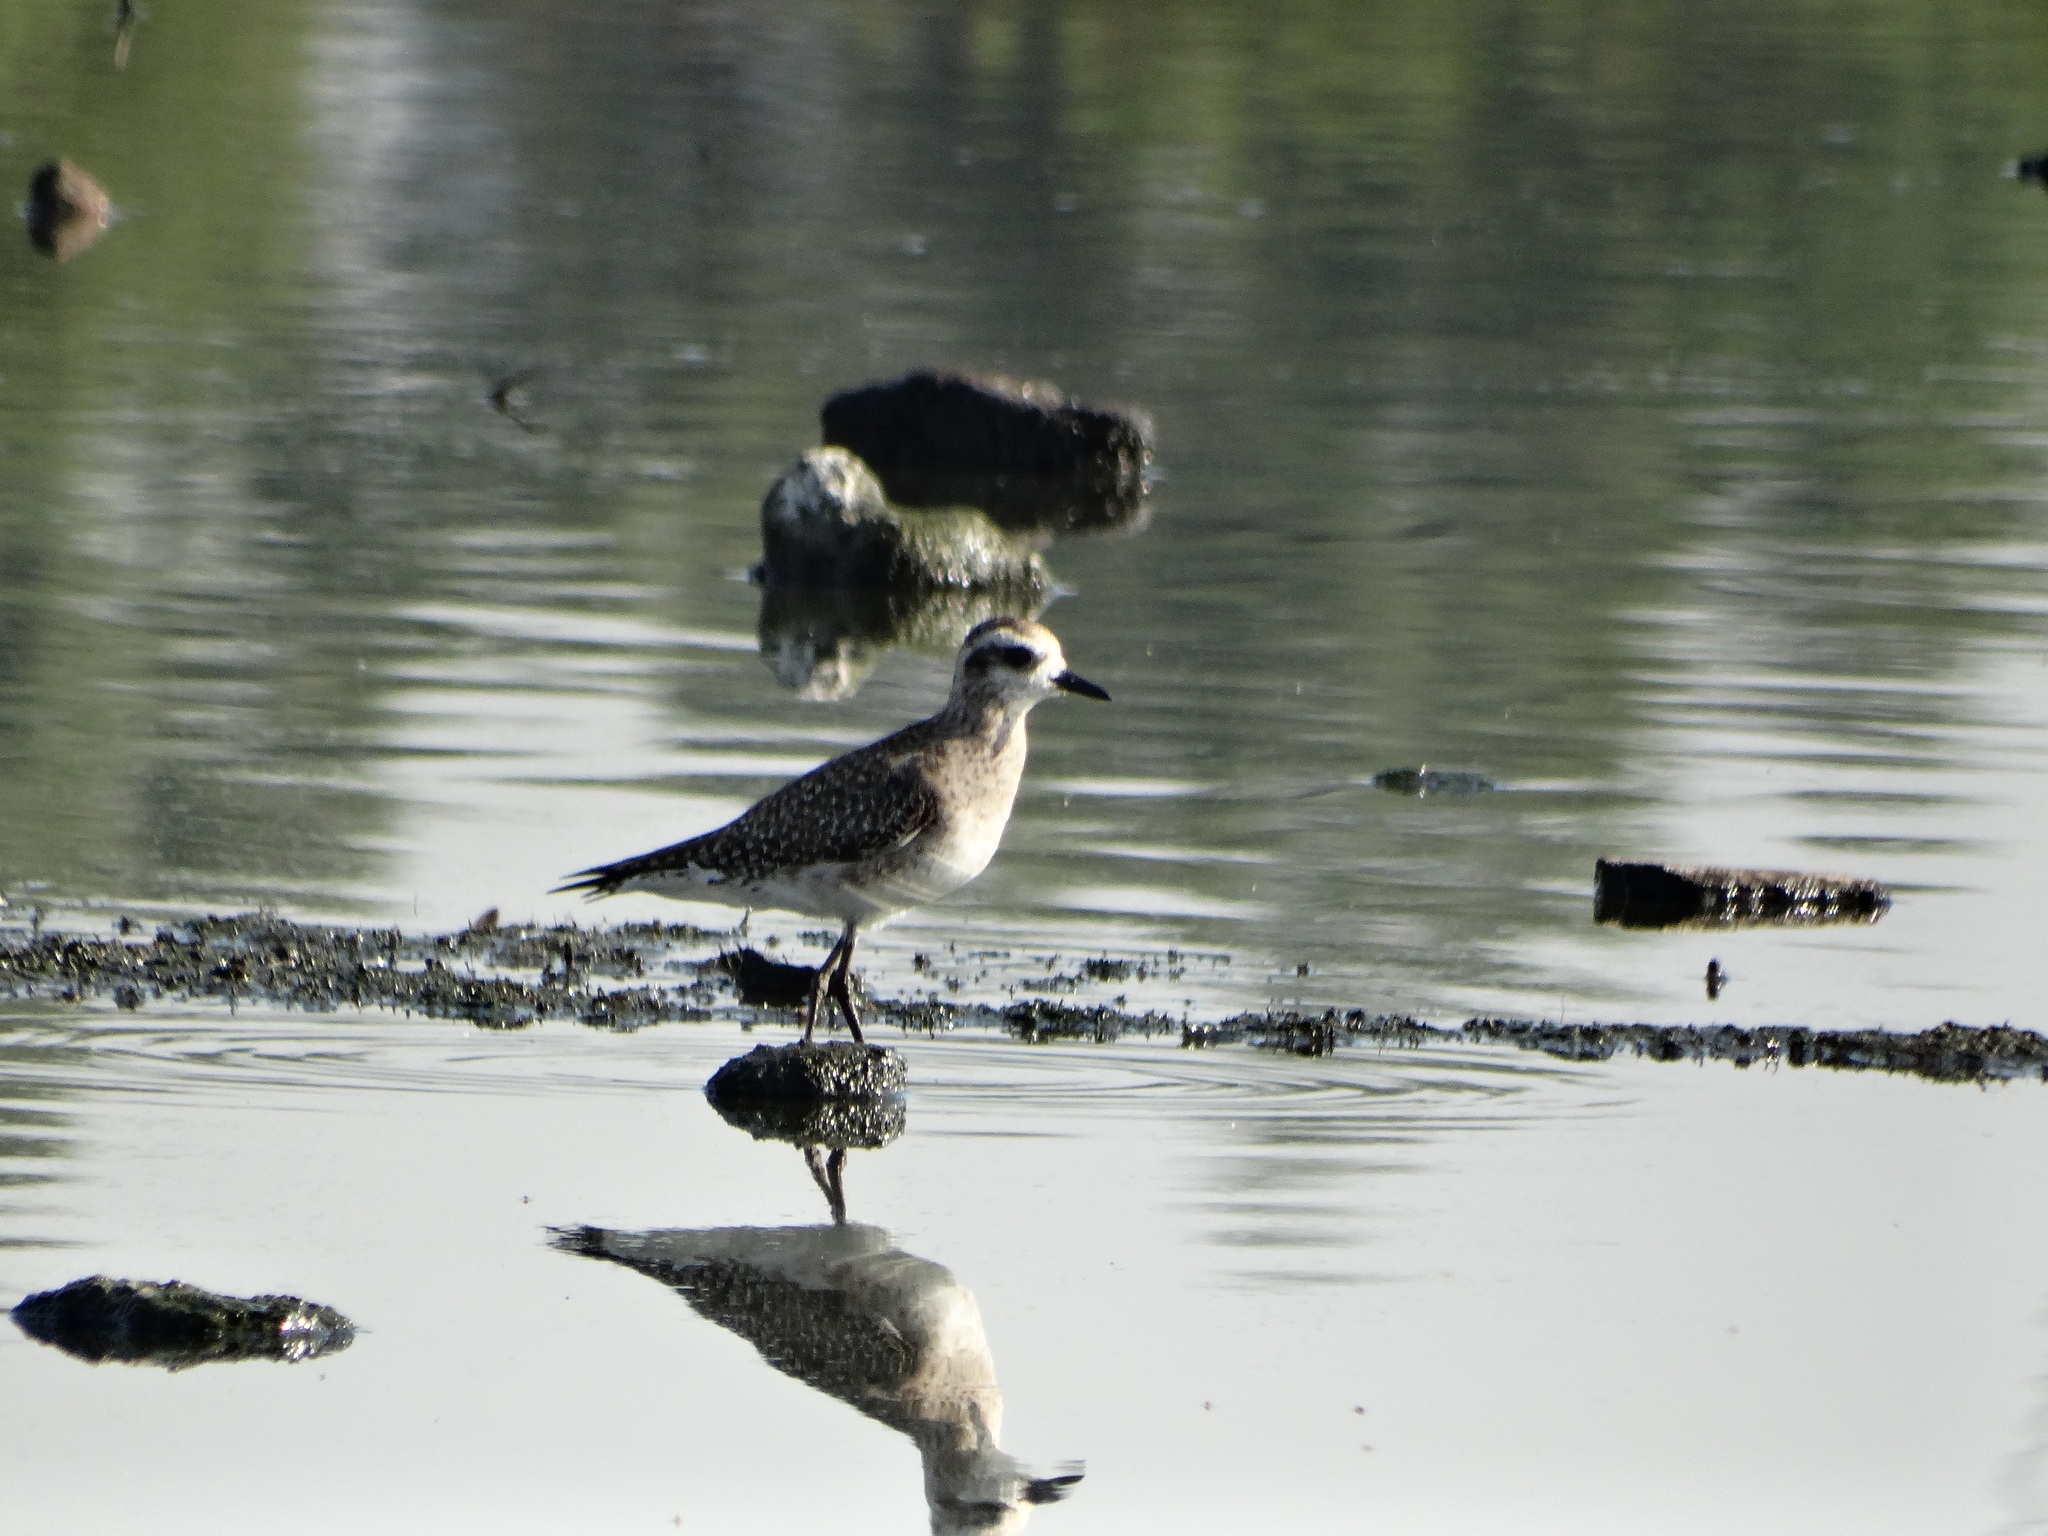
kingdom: Animalia
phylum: Chordata
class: Aves
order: Charadriiformes
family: Charadriidae
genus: Pluvialis
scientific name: Pluvialis dominica
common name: American golden plover
